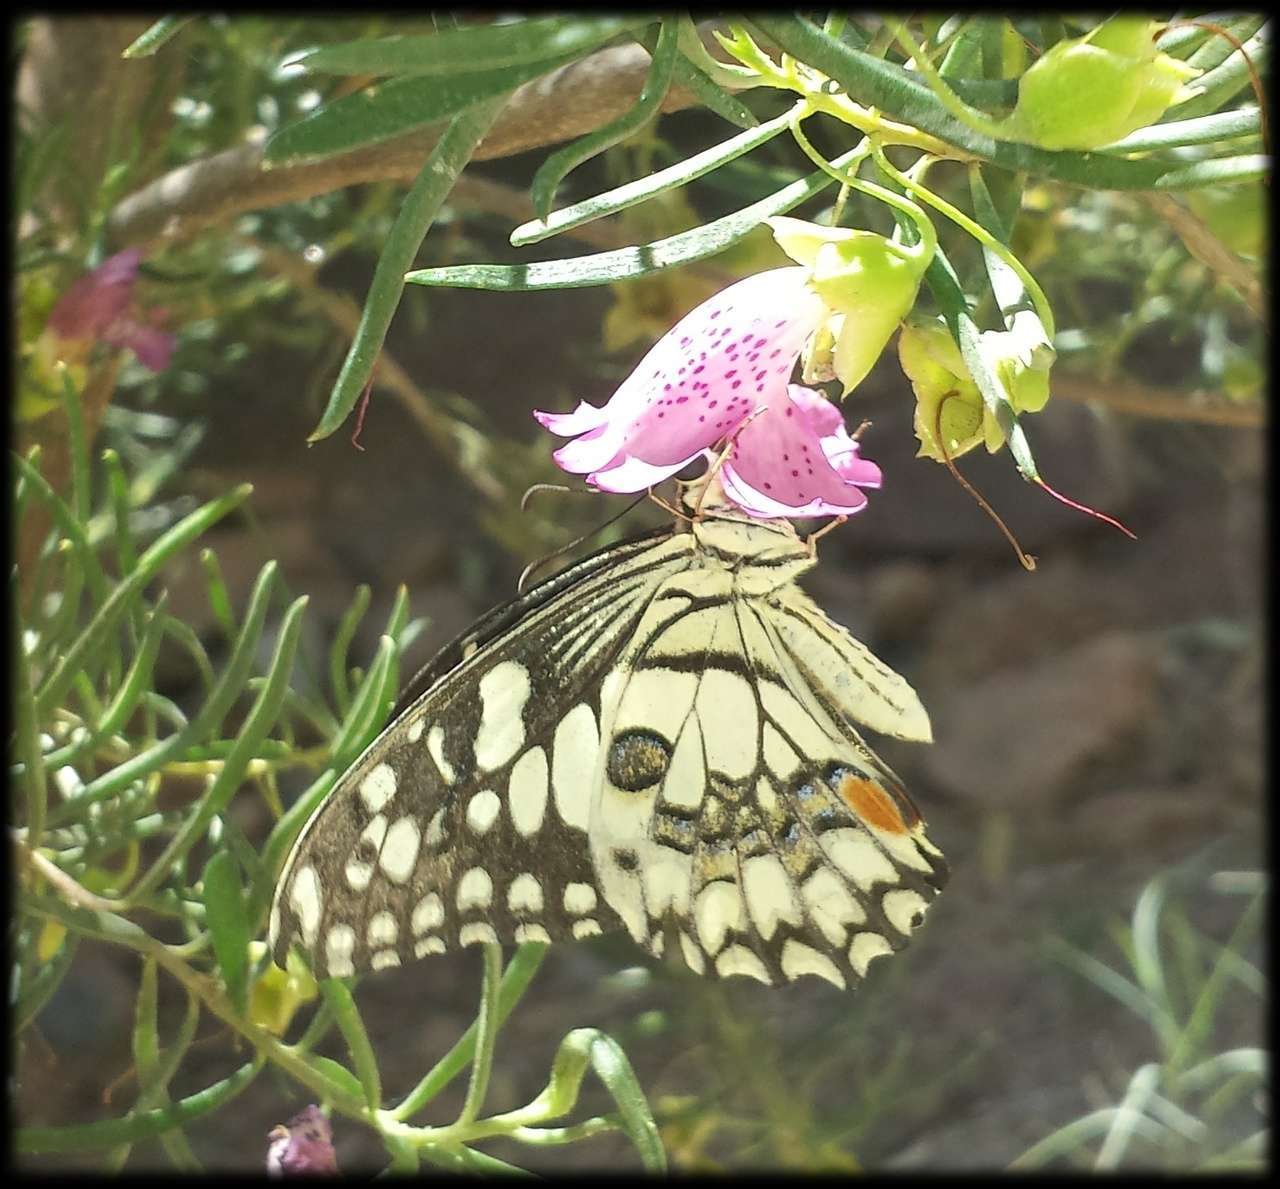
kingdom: Animalia
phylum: Arthropoda
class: Insecta
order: Lepidoptera
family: Papilionidae
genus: Papilio
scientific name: Papilio demoleus
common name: Lime butterfly
